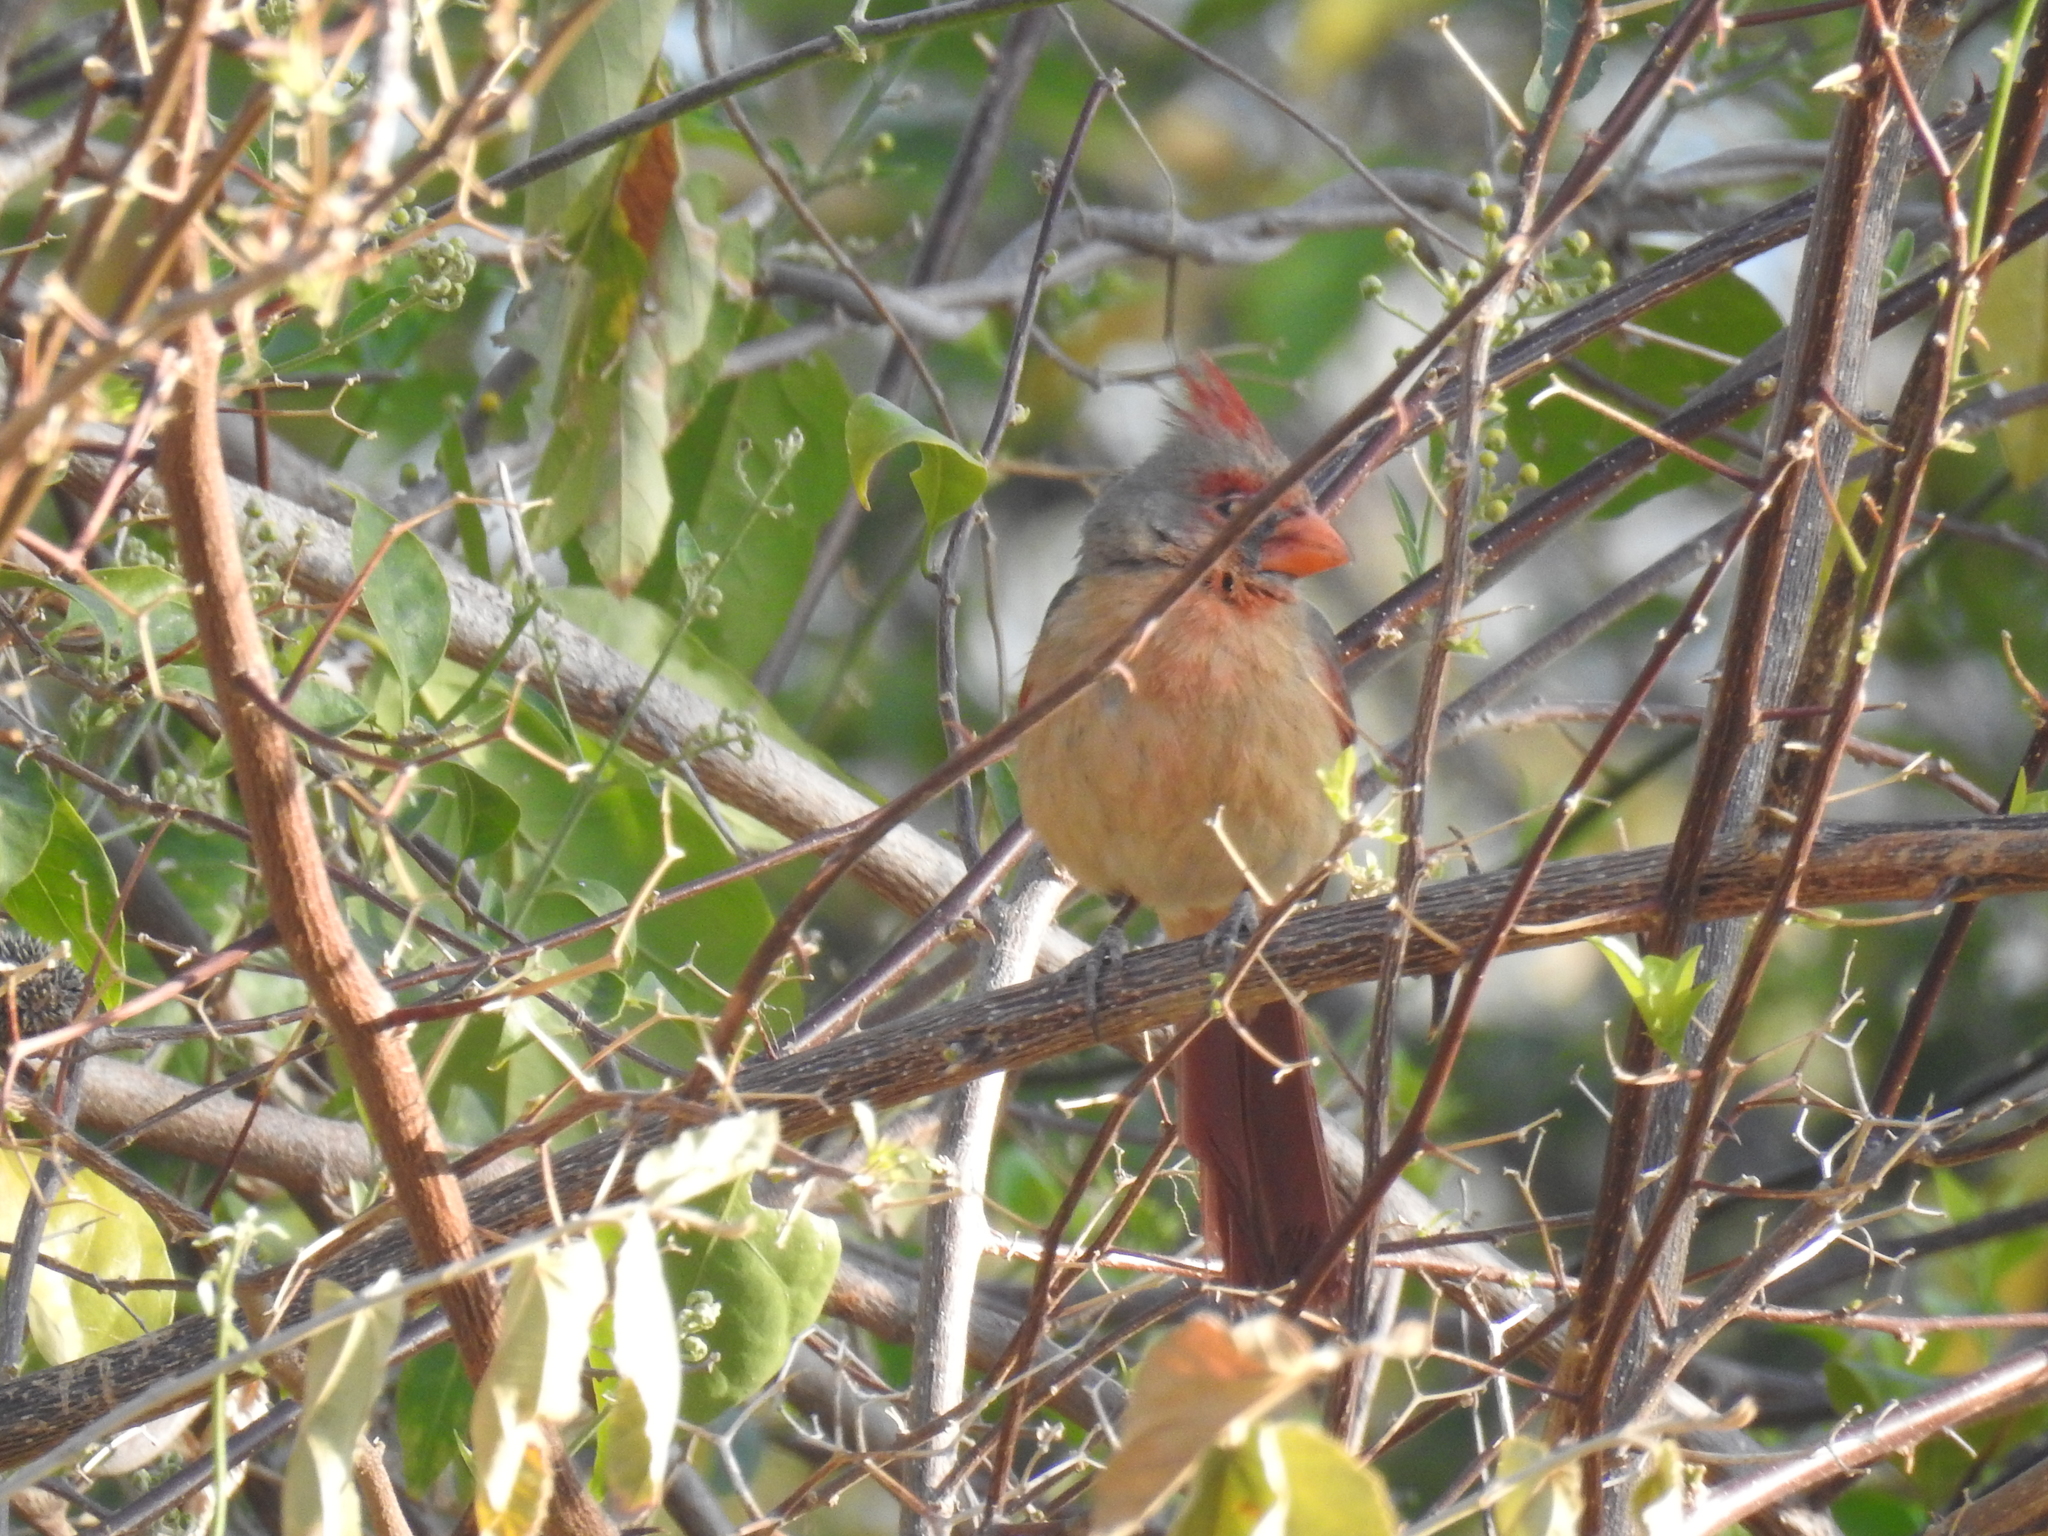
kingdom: Animalia
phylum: Chordata
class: Aves
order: Passeriformes
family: Cardinalidae
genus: Cardinalis
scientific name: Cardinalis cardinalis
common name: Northern cardinal
